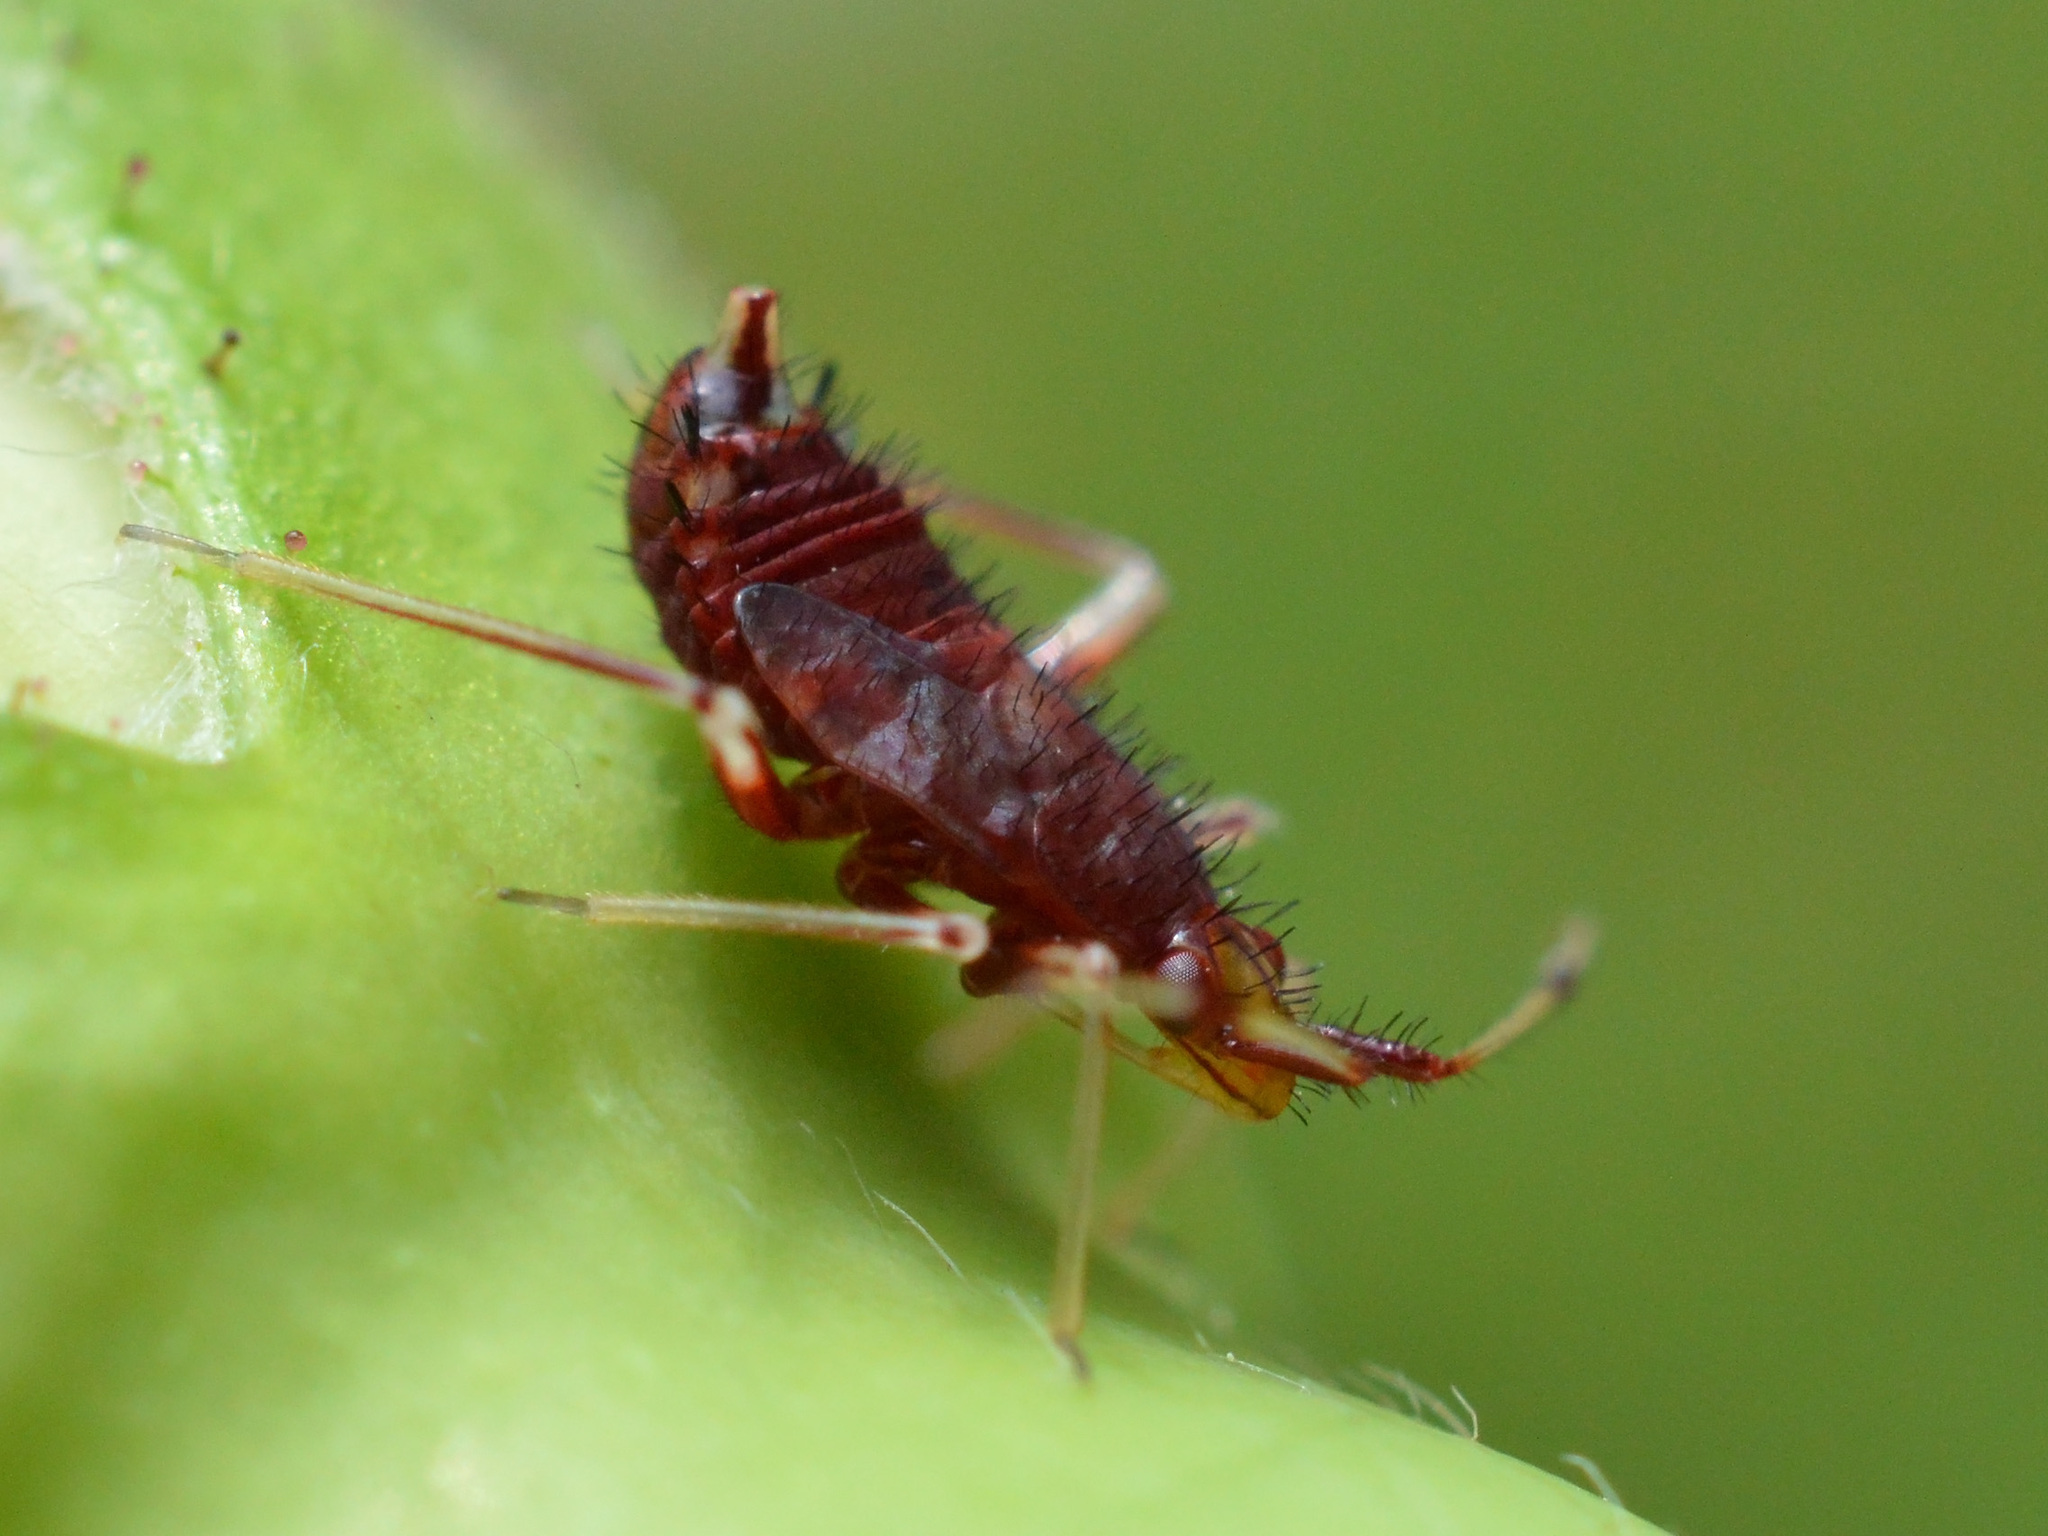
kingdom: Animalia
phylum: Arthropoda
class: Insecta
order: Hemiptera
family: Miridae
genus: Deraeocoris
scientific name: Deraeocoris ruber
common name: Plant bug
